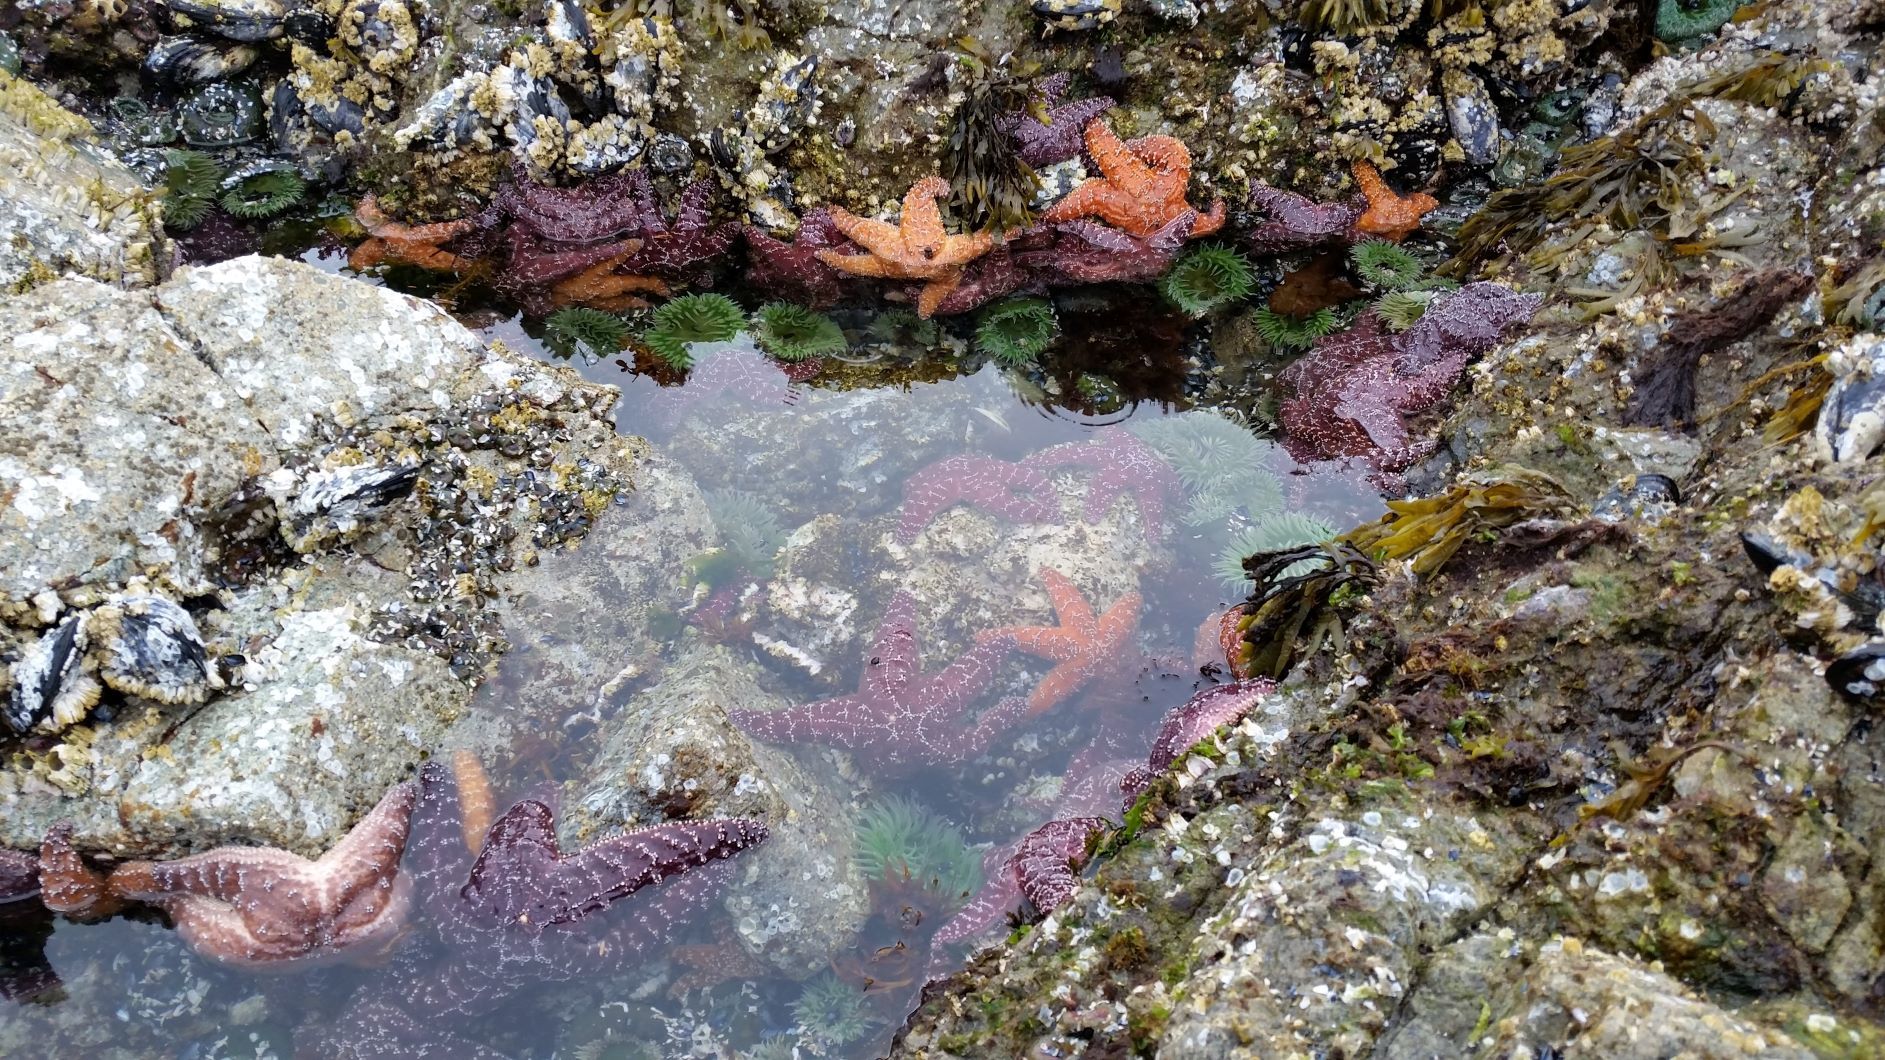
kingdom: Animalia
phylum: Echinodermata
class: Asteroidea
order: Forcipulatida
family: Asteriidae
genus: Pisaster
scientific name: Pisaster ochraceus
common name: Ochre stars
